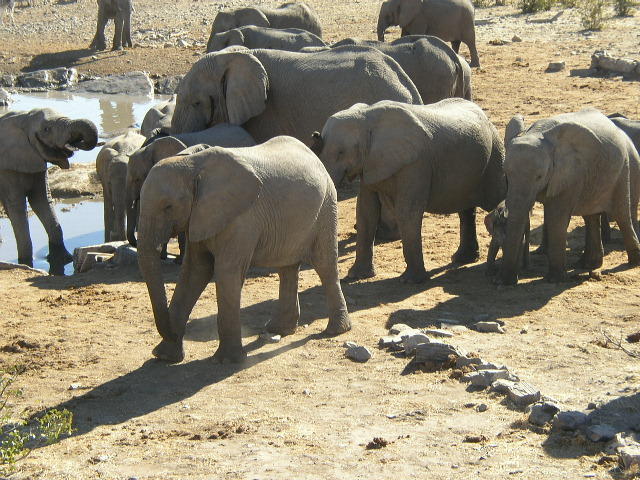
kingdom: Animalia
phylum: Chordata
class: Mammalia
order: Proboscidea
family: Elephantidae
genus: Loxodonta
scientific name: Loxodonta africana
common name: African elephant
